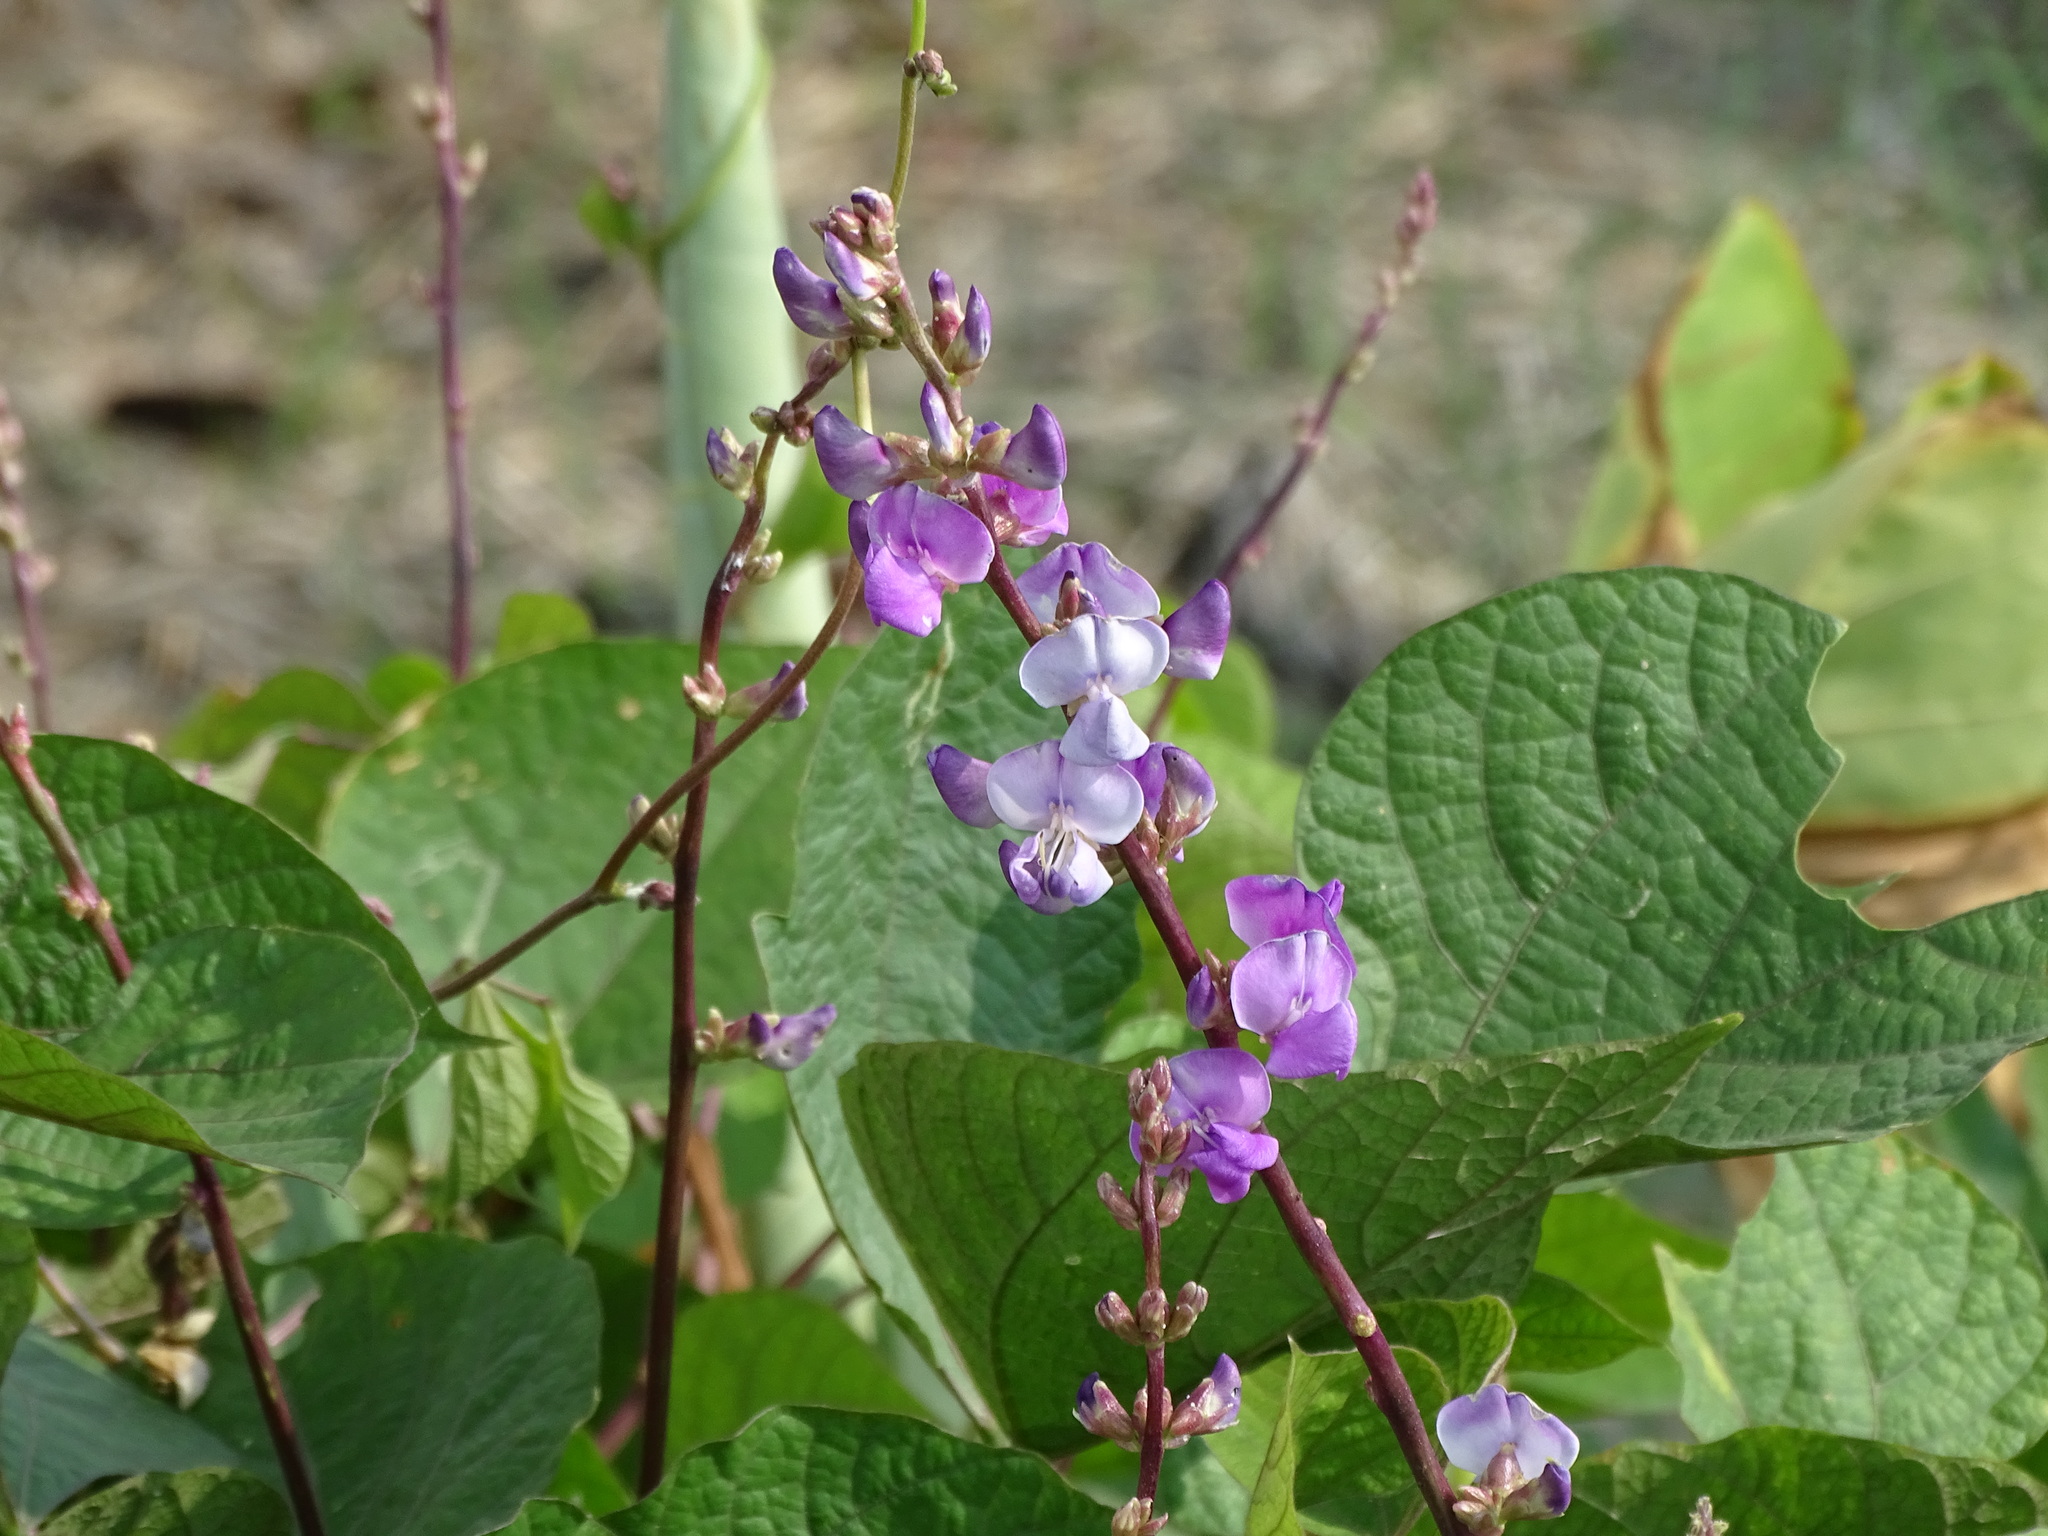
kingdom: Plantae
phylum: Tracheophyta
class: Magnoliopsida
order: Fabales
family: Fabaceae
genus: Lablab
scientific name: Lablab purpureus
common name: Lablab-bean
